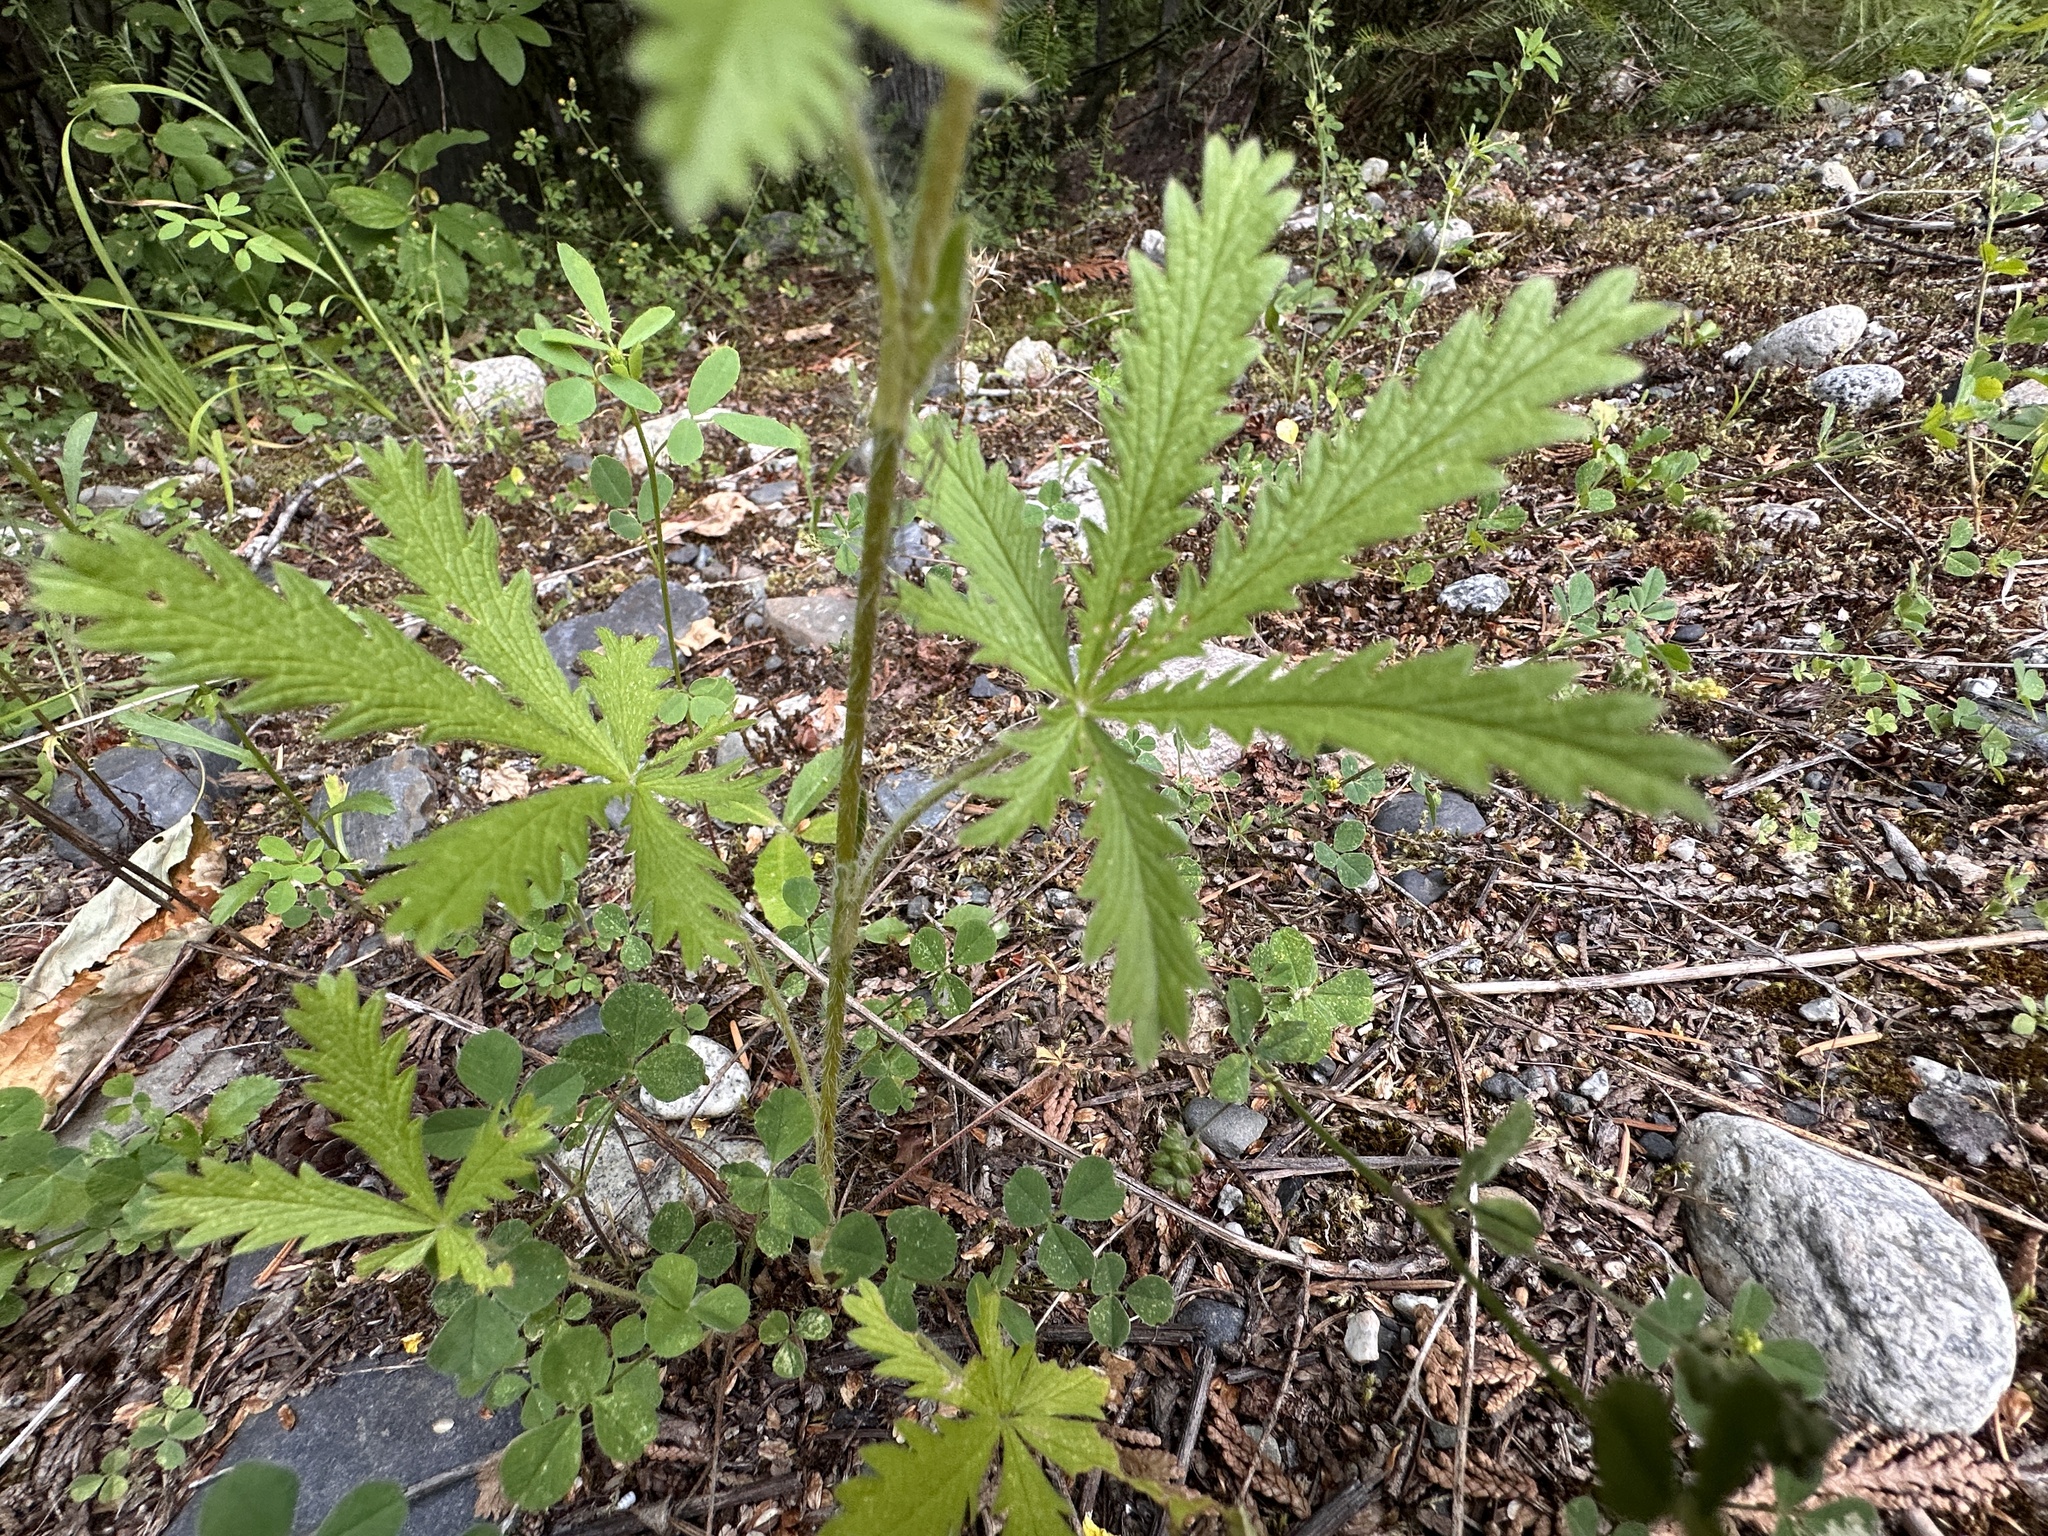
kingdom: Plantae
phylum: Tracheophyta
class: Magnoliopsida
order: Rosales
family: Rosaceae
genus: Potentilla
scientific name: Potentilla recta
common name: Sulphur cinquefoil
